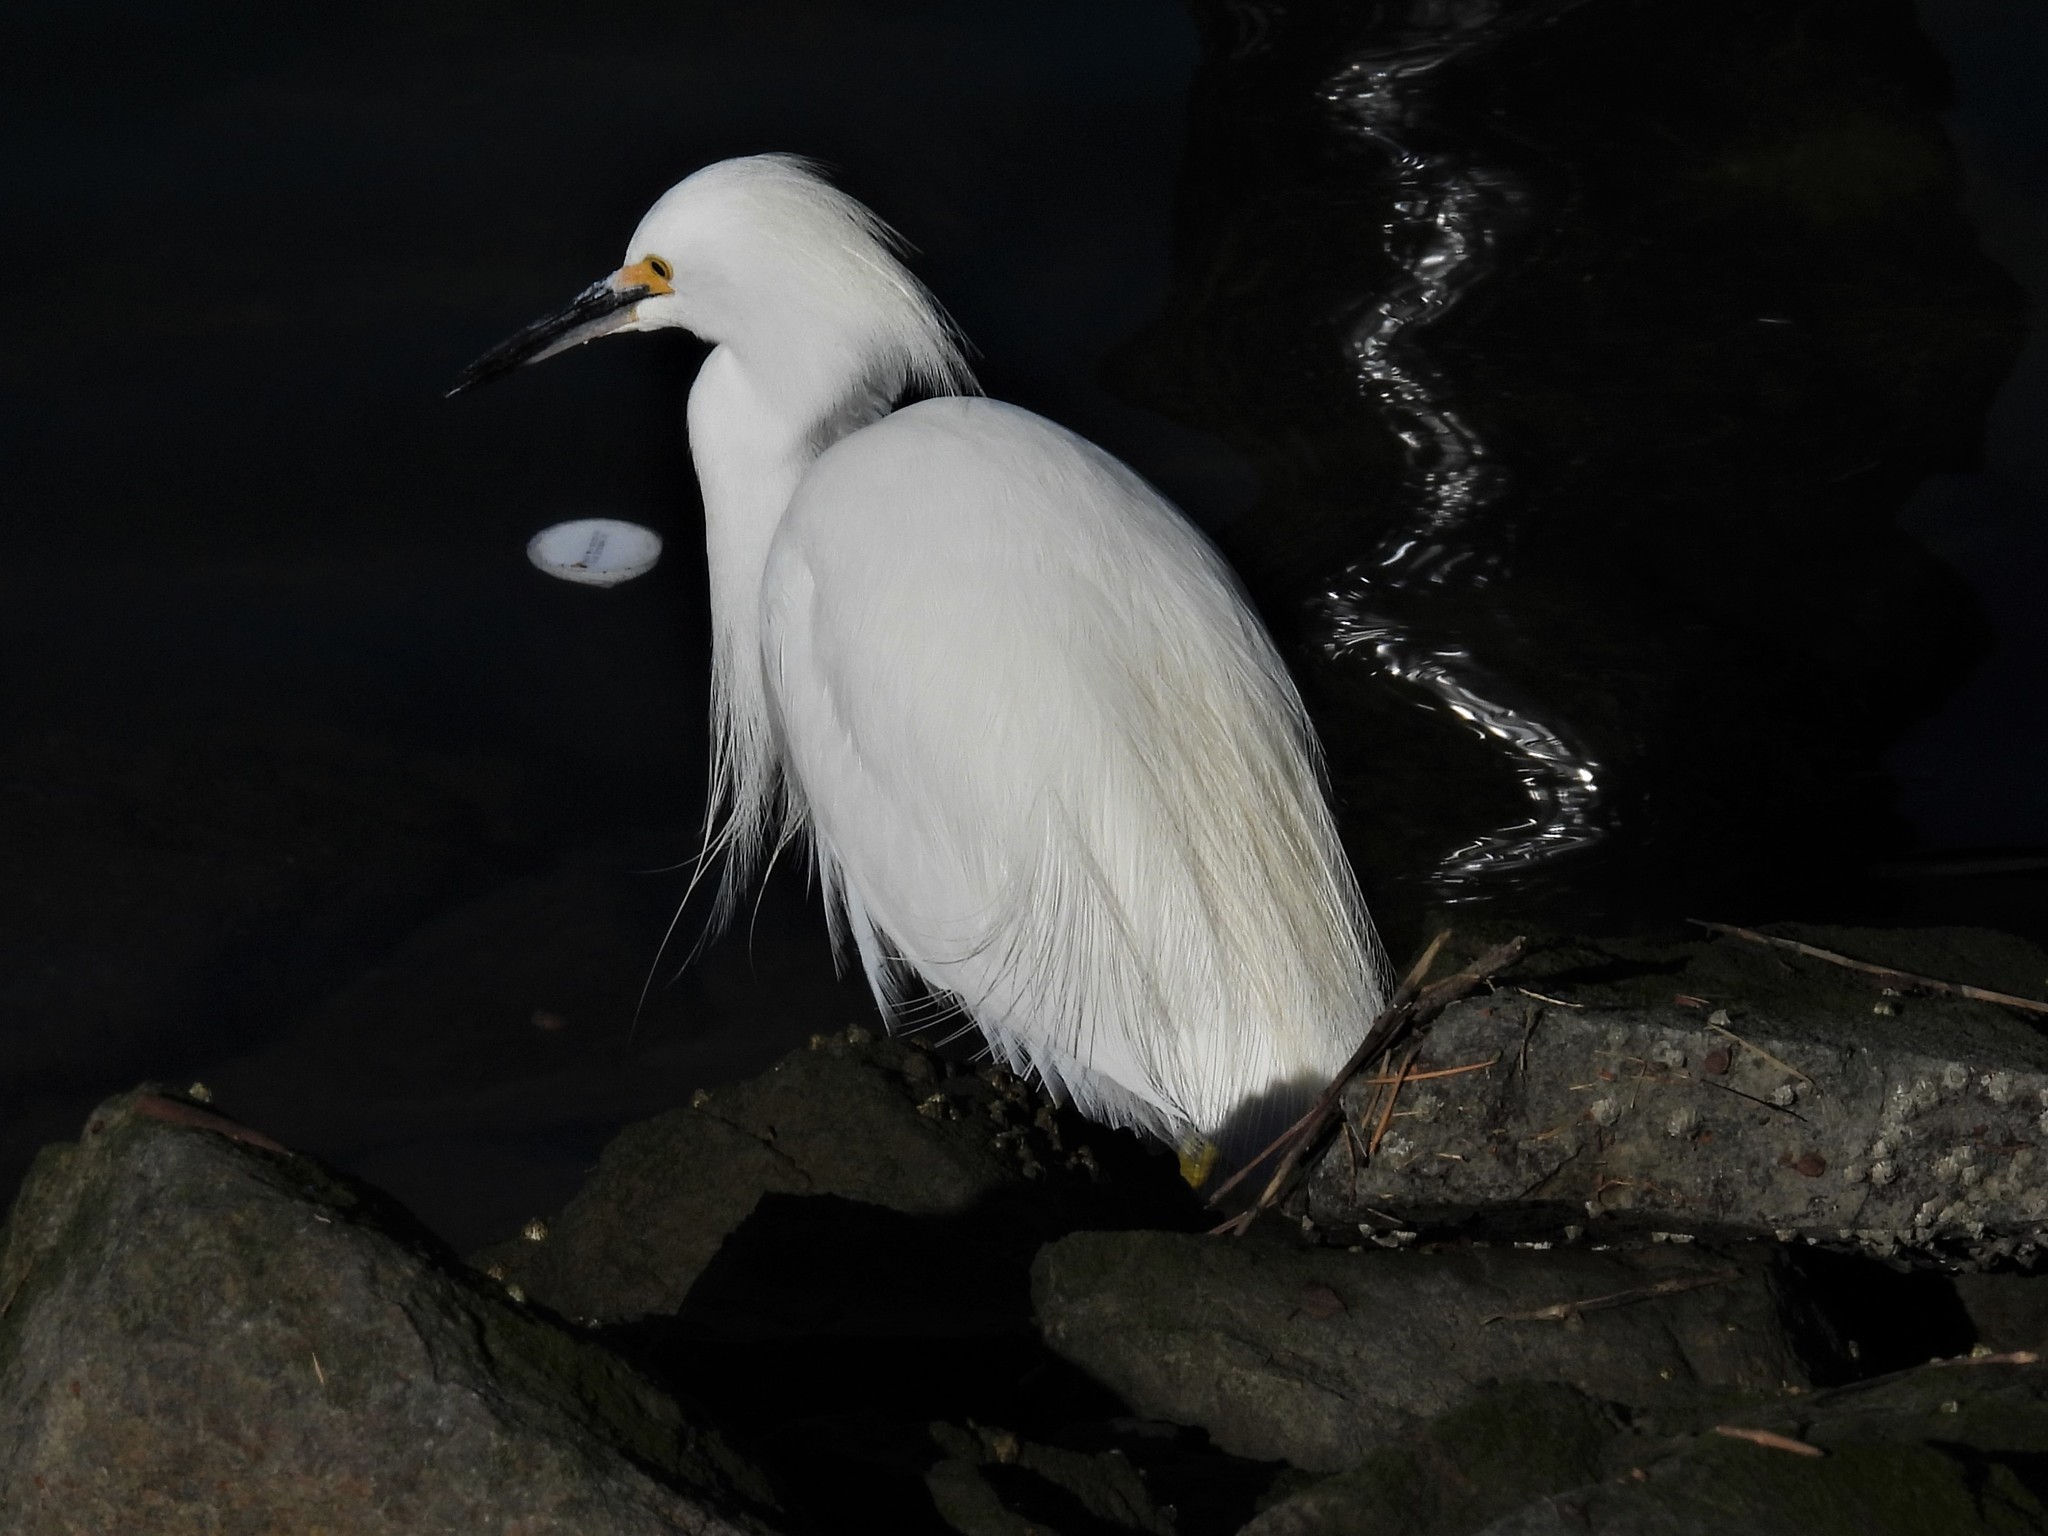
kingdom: Animalia
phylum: Chordata
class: Aves
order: Pelecaniformes
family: Ardeidae
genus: Egretta
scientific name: Egretta thula
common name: Snowy egret
